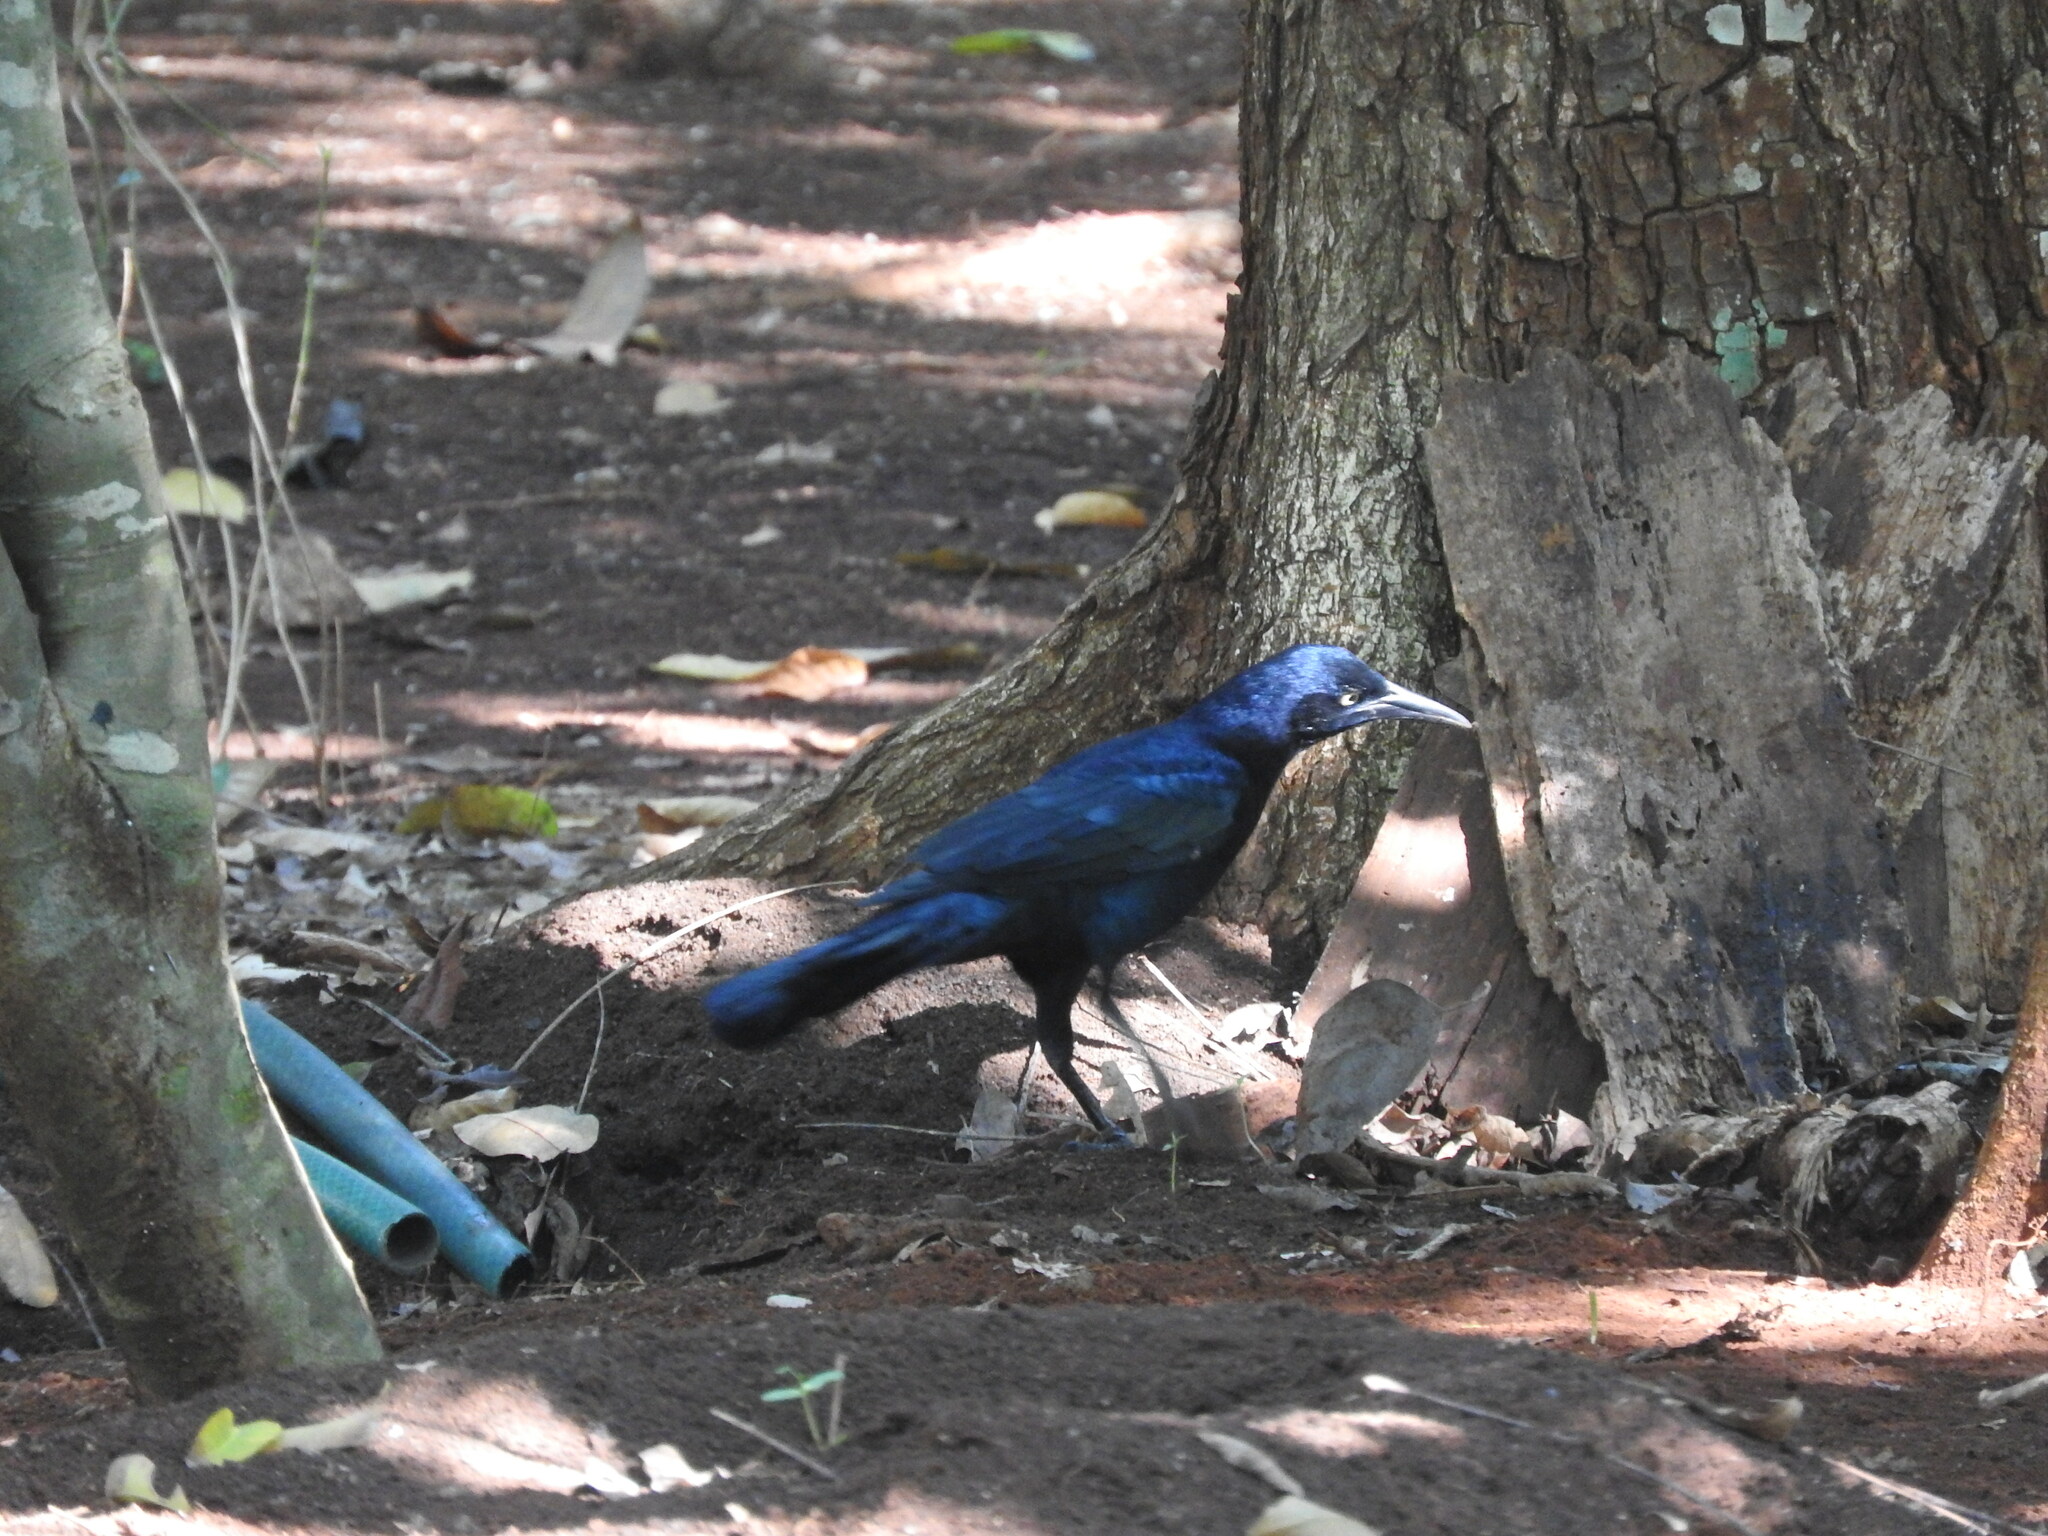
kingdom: Animalia
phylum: Chordata
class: Aves
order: Passeriformes
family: Icteridae
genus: Quiscalus
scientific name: Quiscalus mexicanus
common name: Great-tailed grackle
